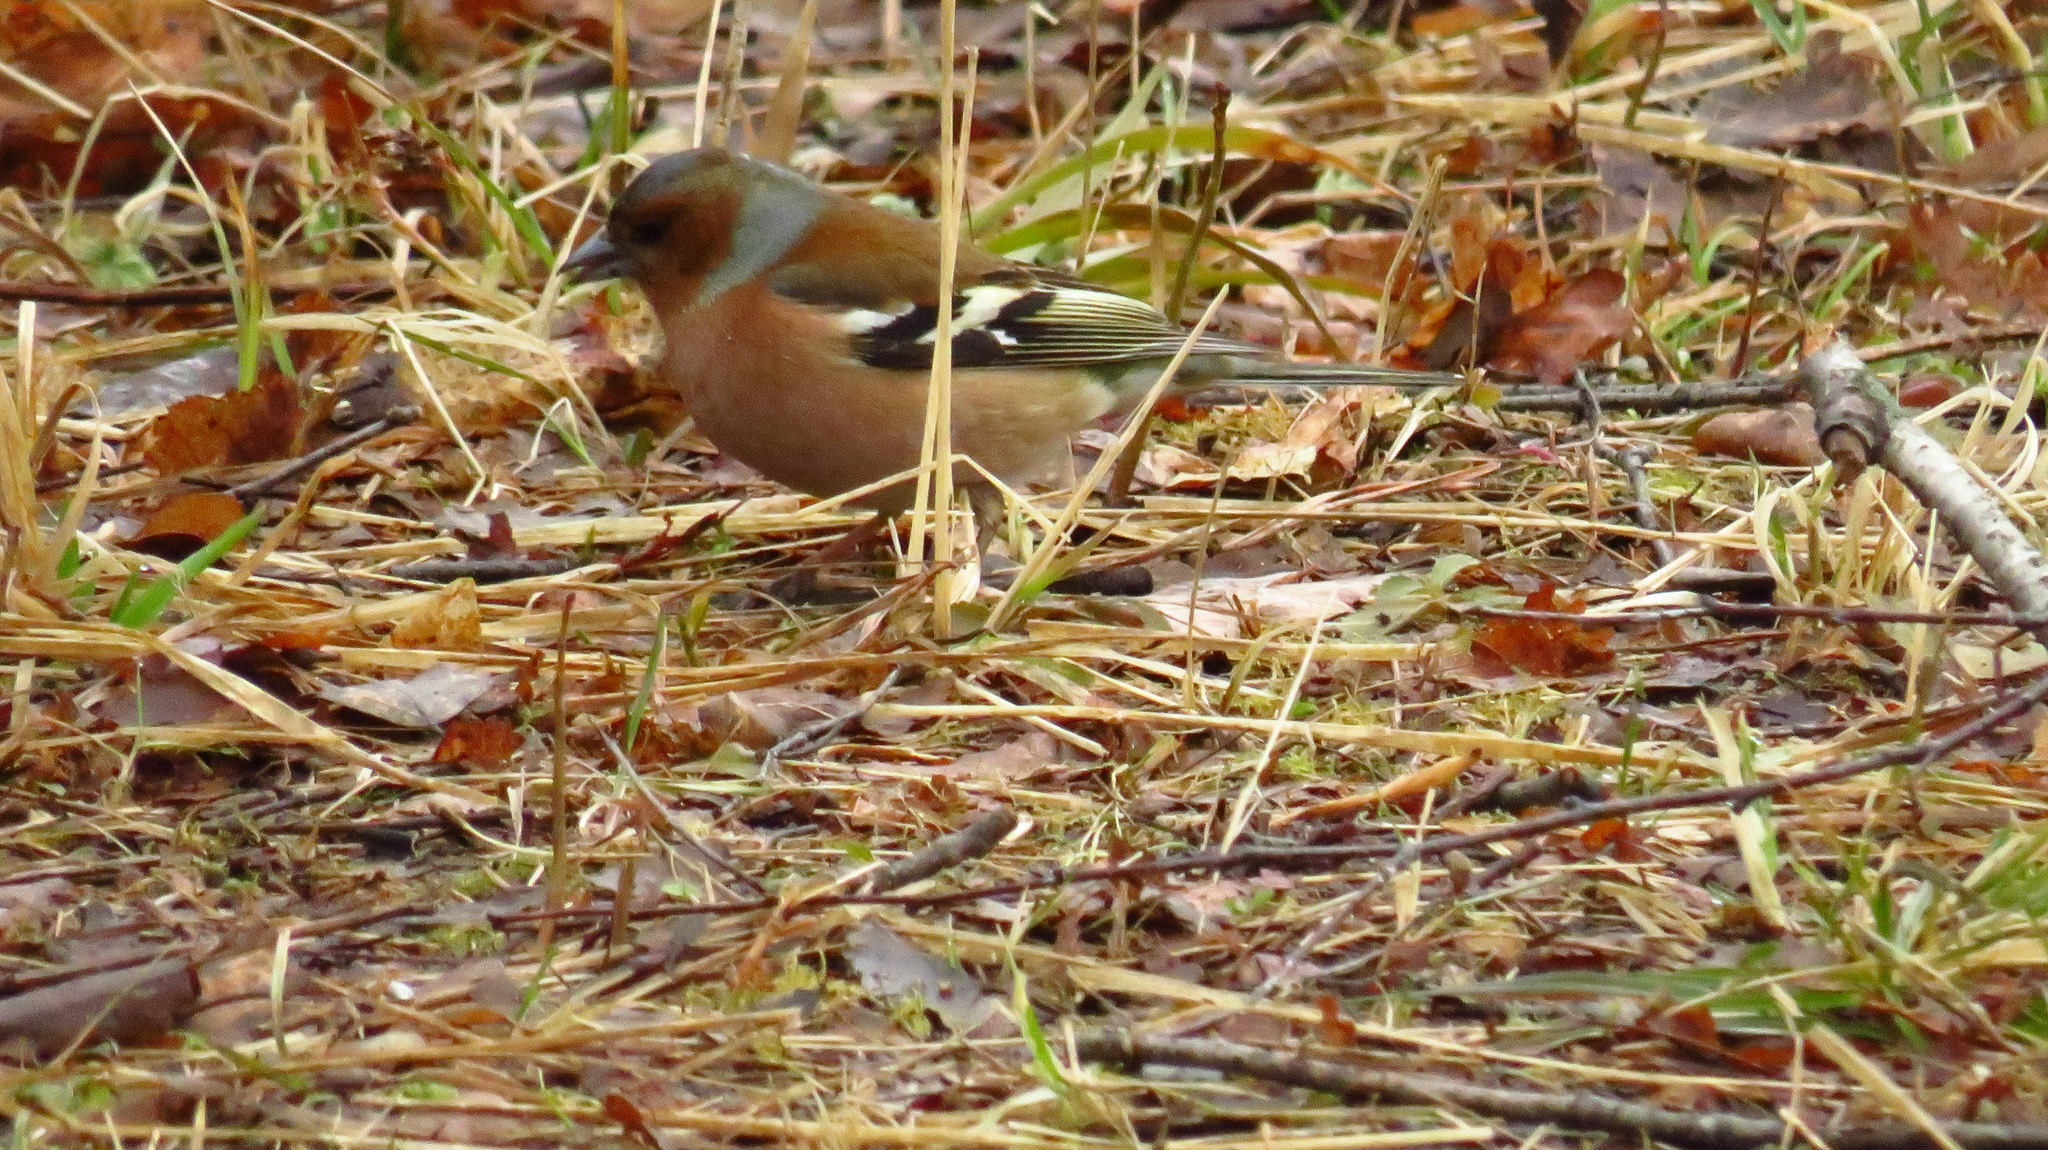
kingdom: Animalia
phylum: Chordata
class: Aves
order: Passeriformes
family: Fringillidae
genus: Fringilla
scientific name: Fringilla coelebs
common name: Common chaffinch
